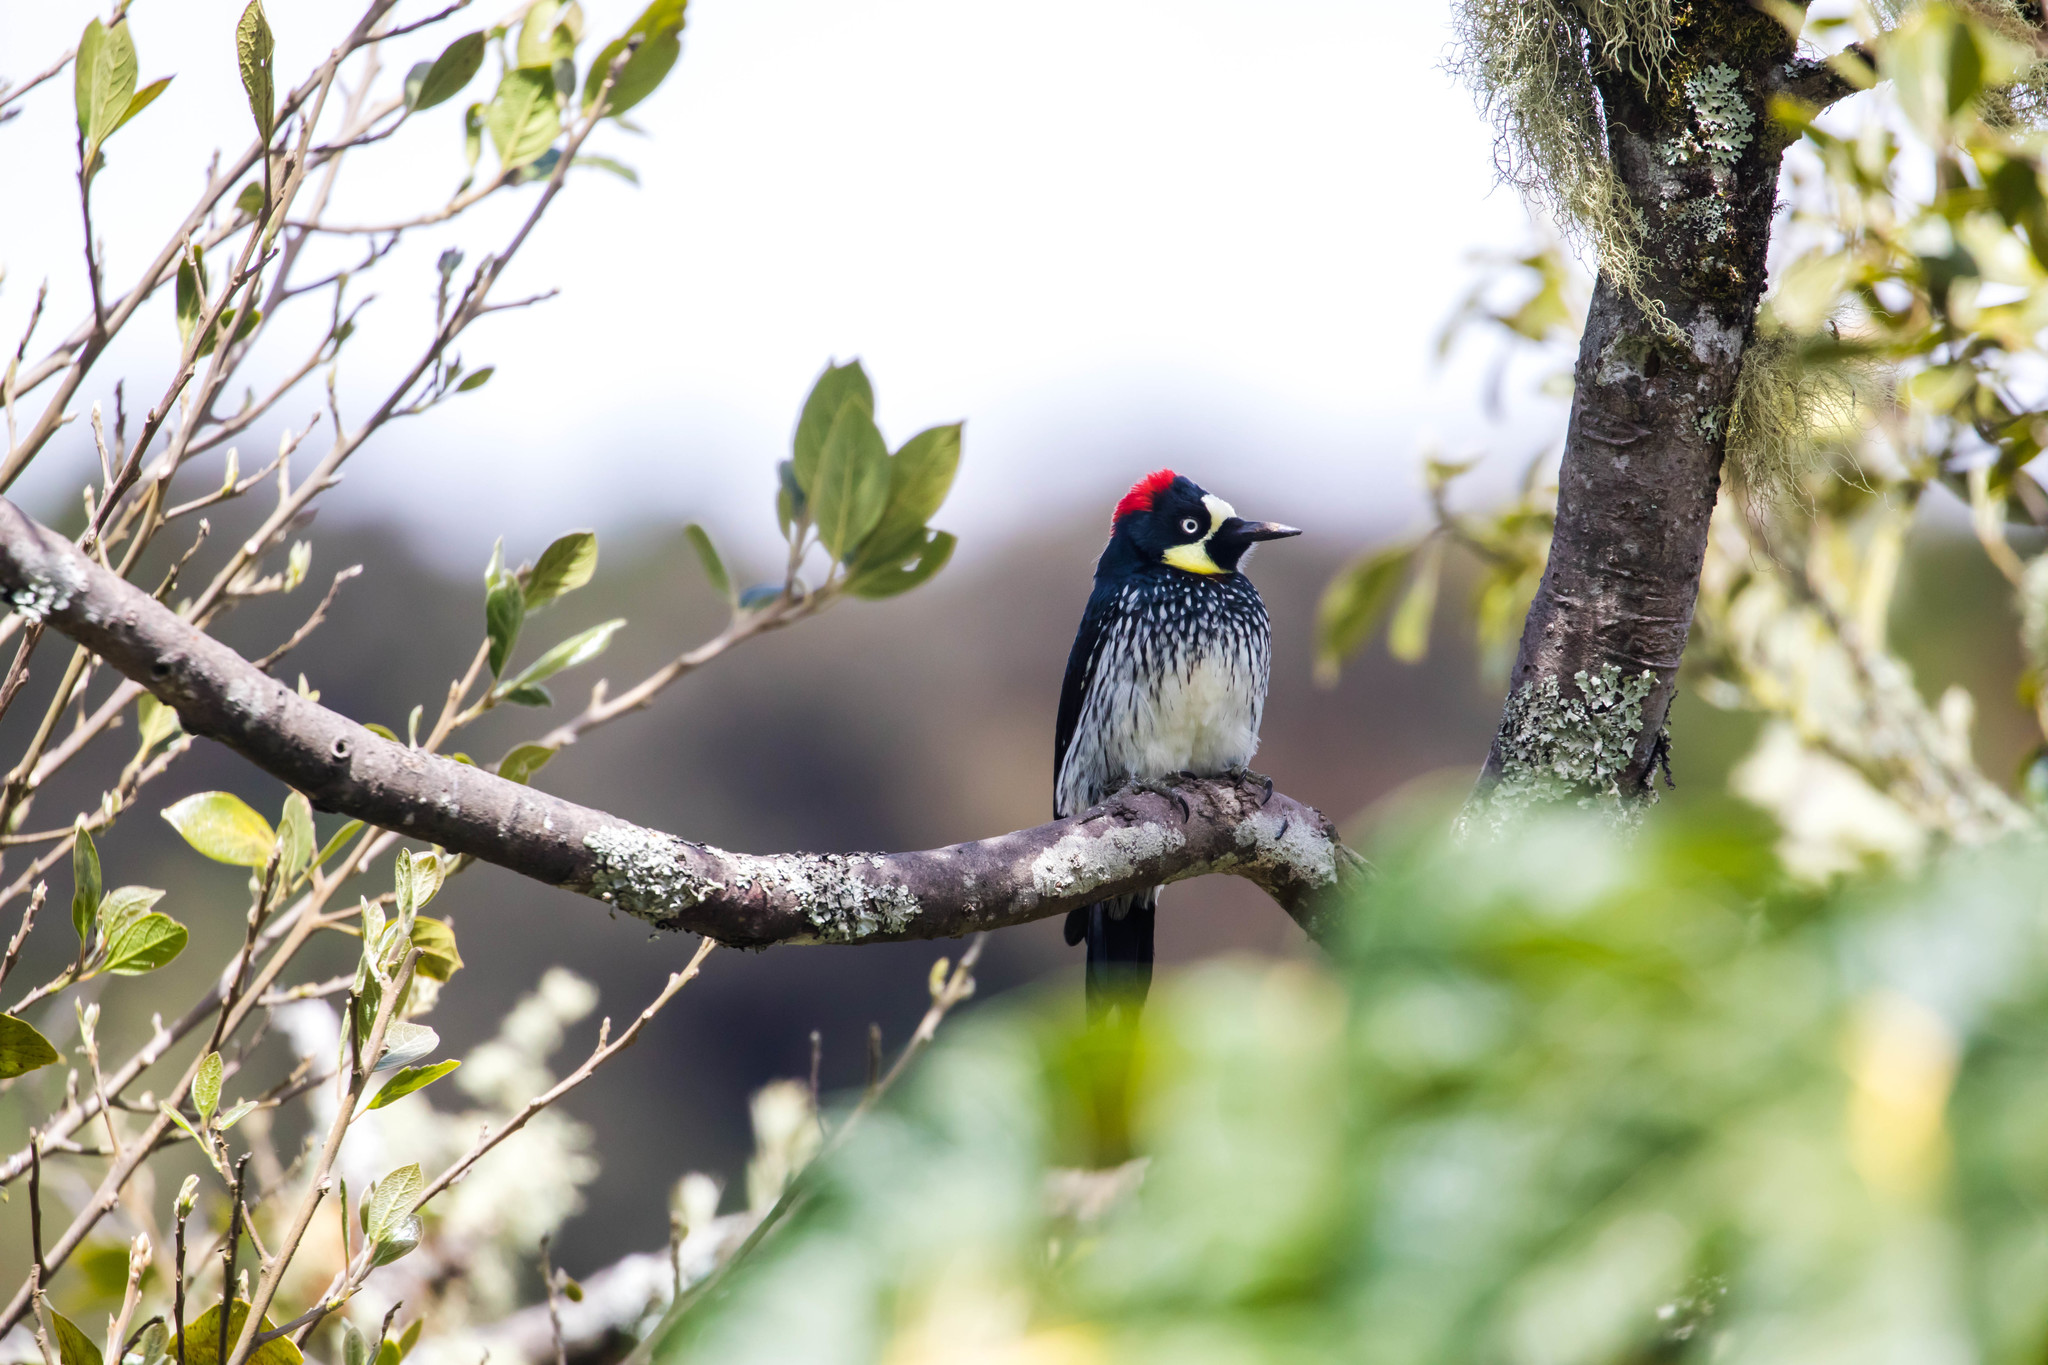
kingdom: Animalia
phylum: Chordata
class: Aves
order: Piciformes
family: Picidae
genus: Melanerpes
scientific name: Melanerpes formicivorus
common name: Acorn woodpecker
